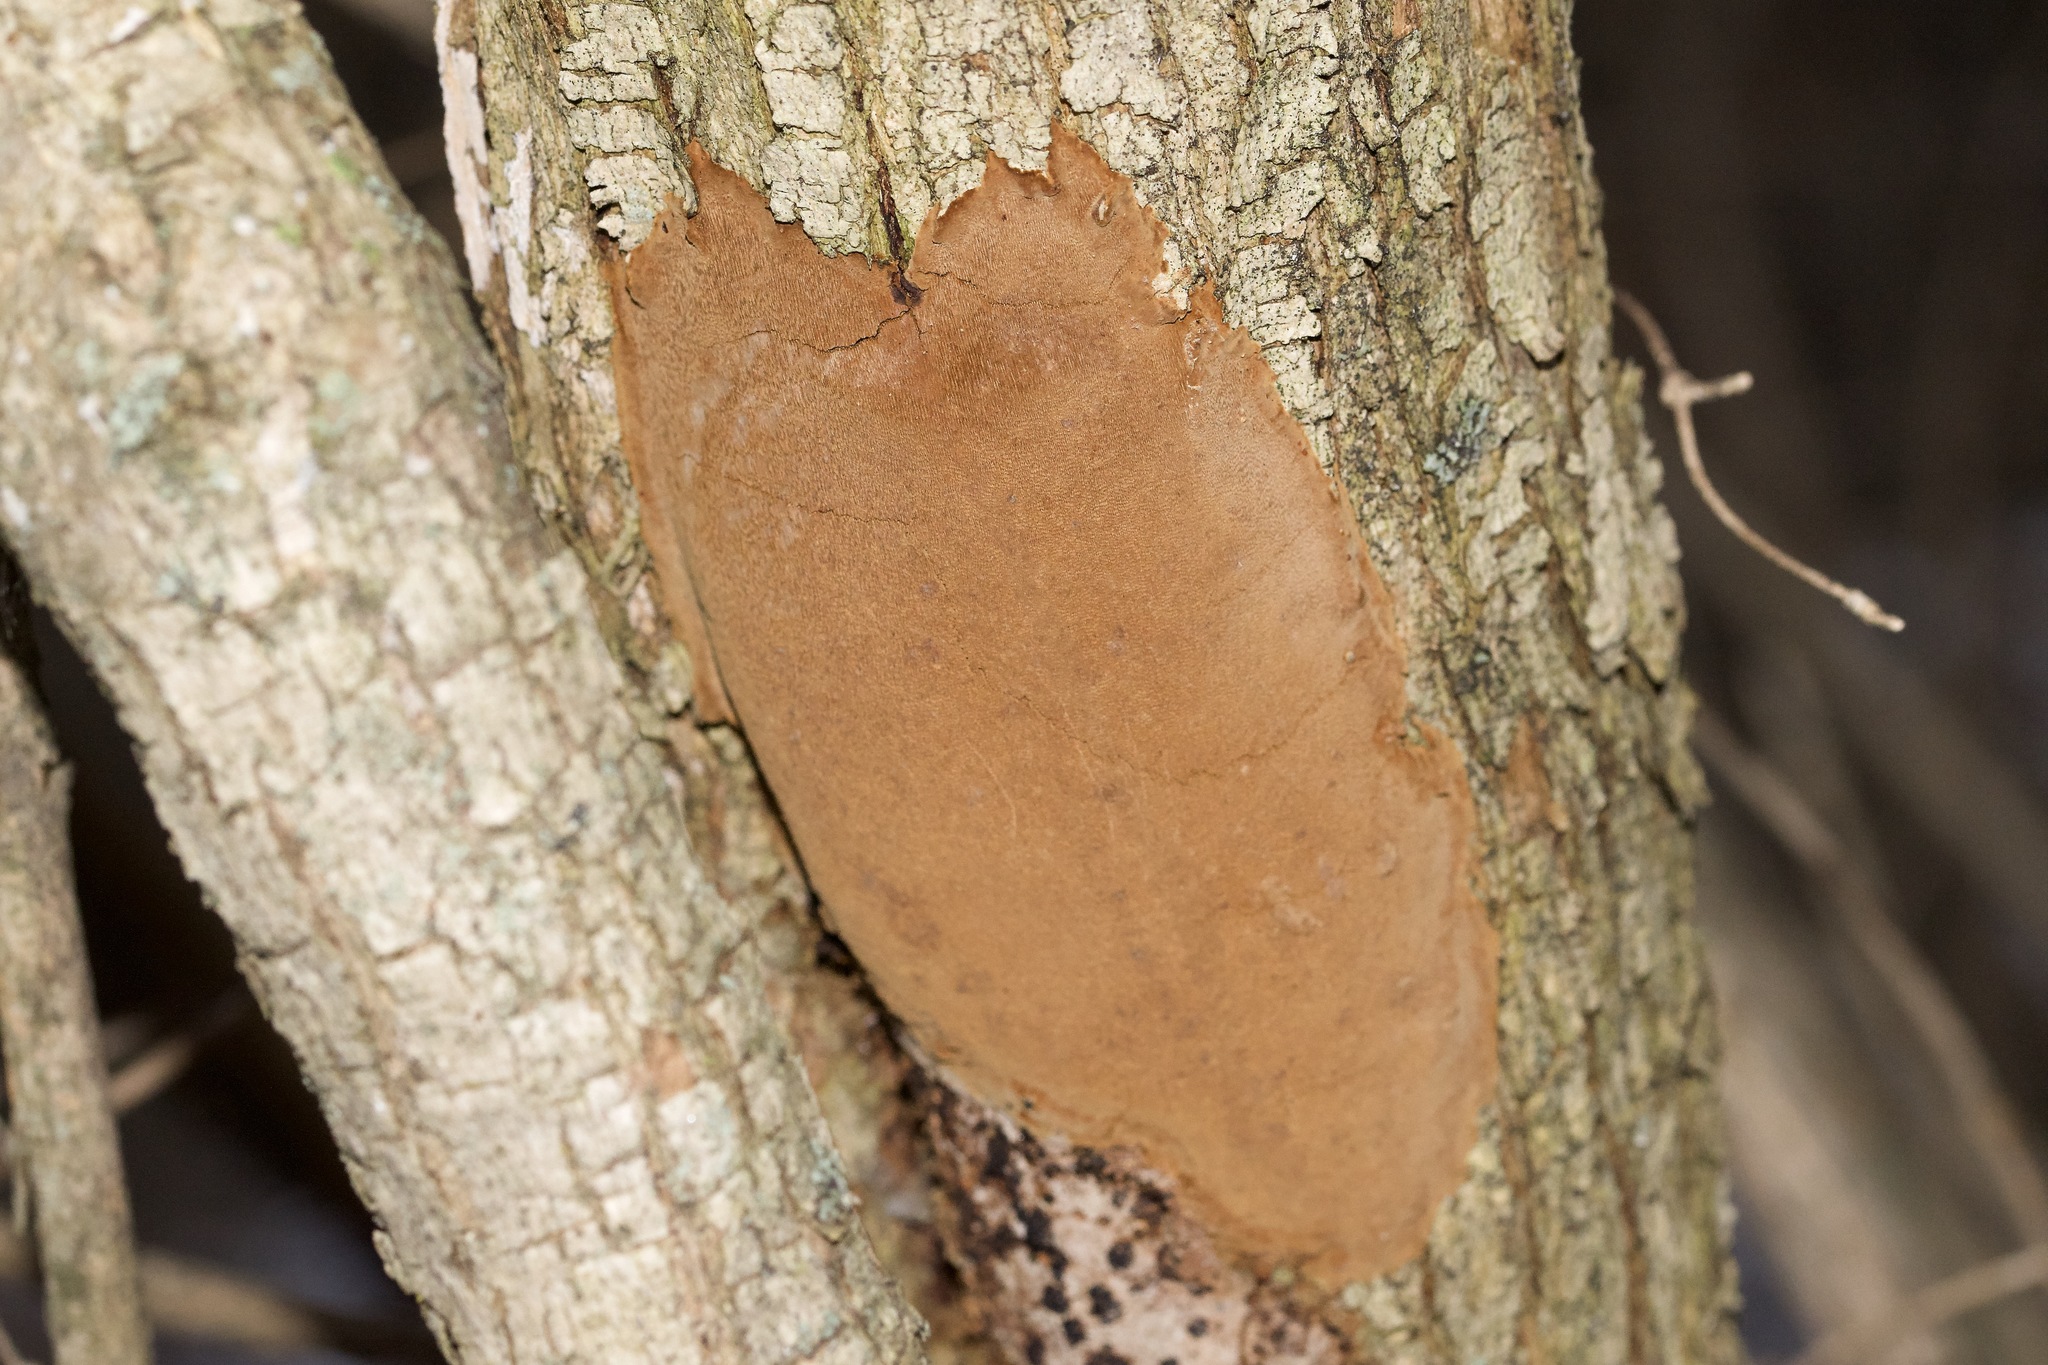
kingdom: Fungi
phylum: Basidiomycota
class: Agaricomycetes
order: Hymenochaetales
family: Hymenochaetaceae
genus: Fomitiporia
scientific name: Fomitiporia punctata
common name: Elbowpatch crust
